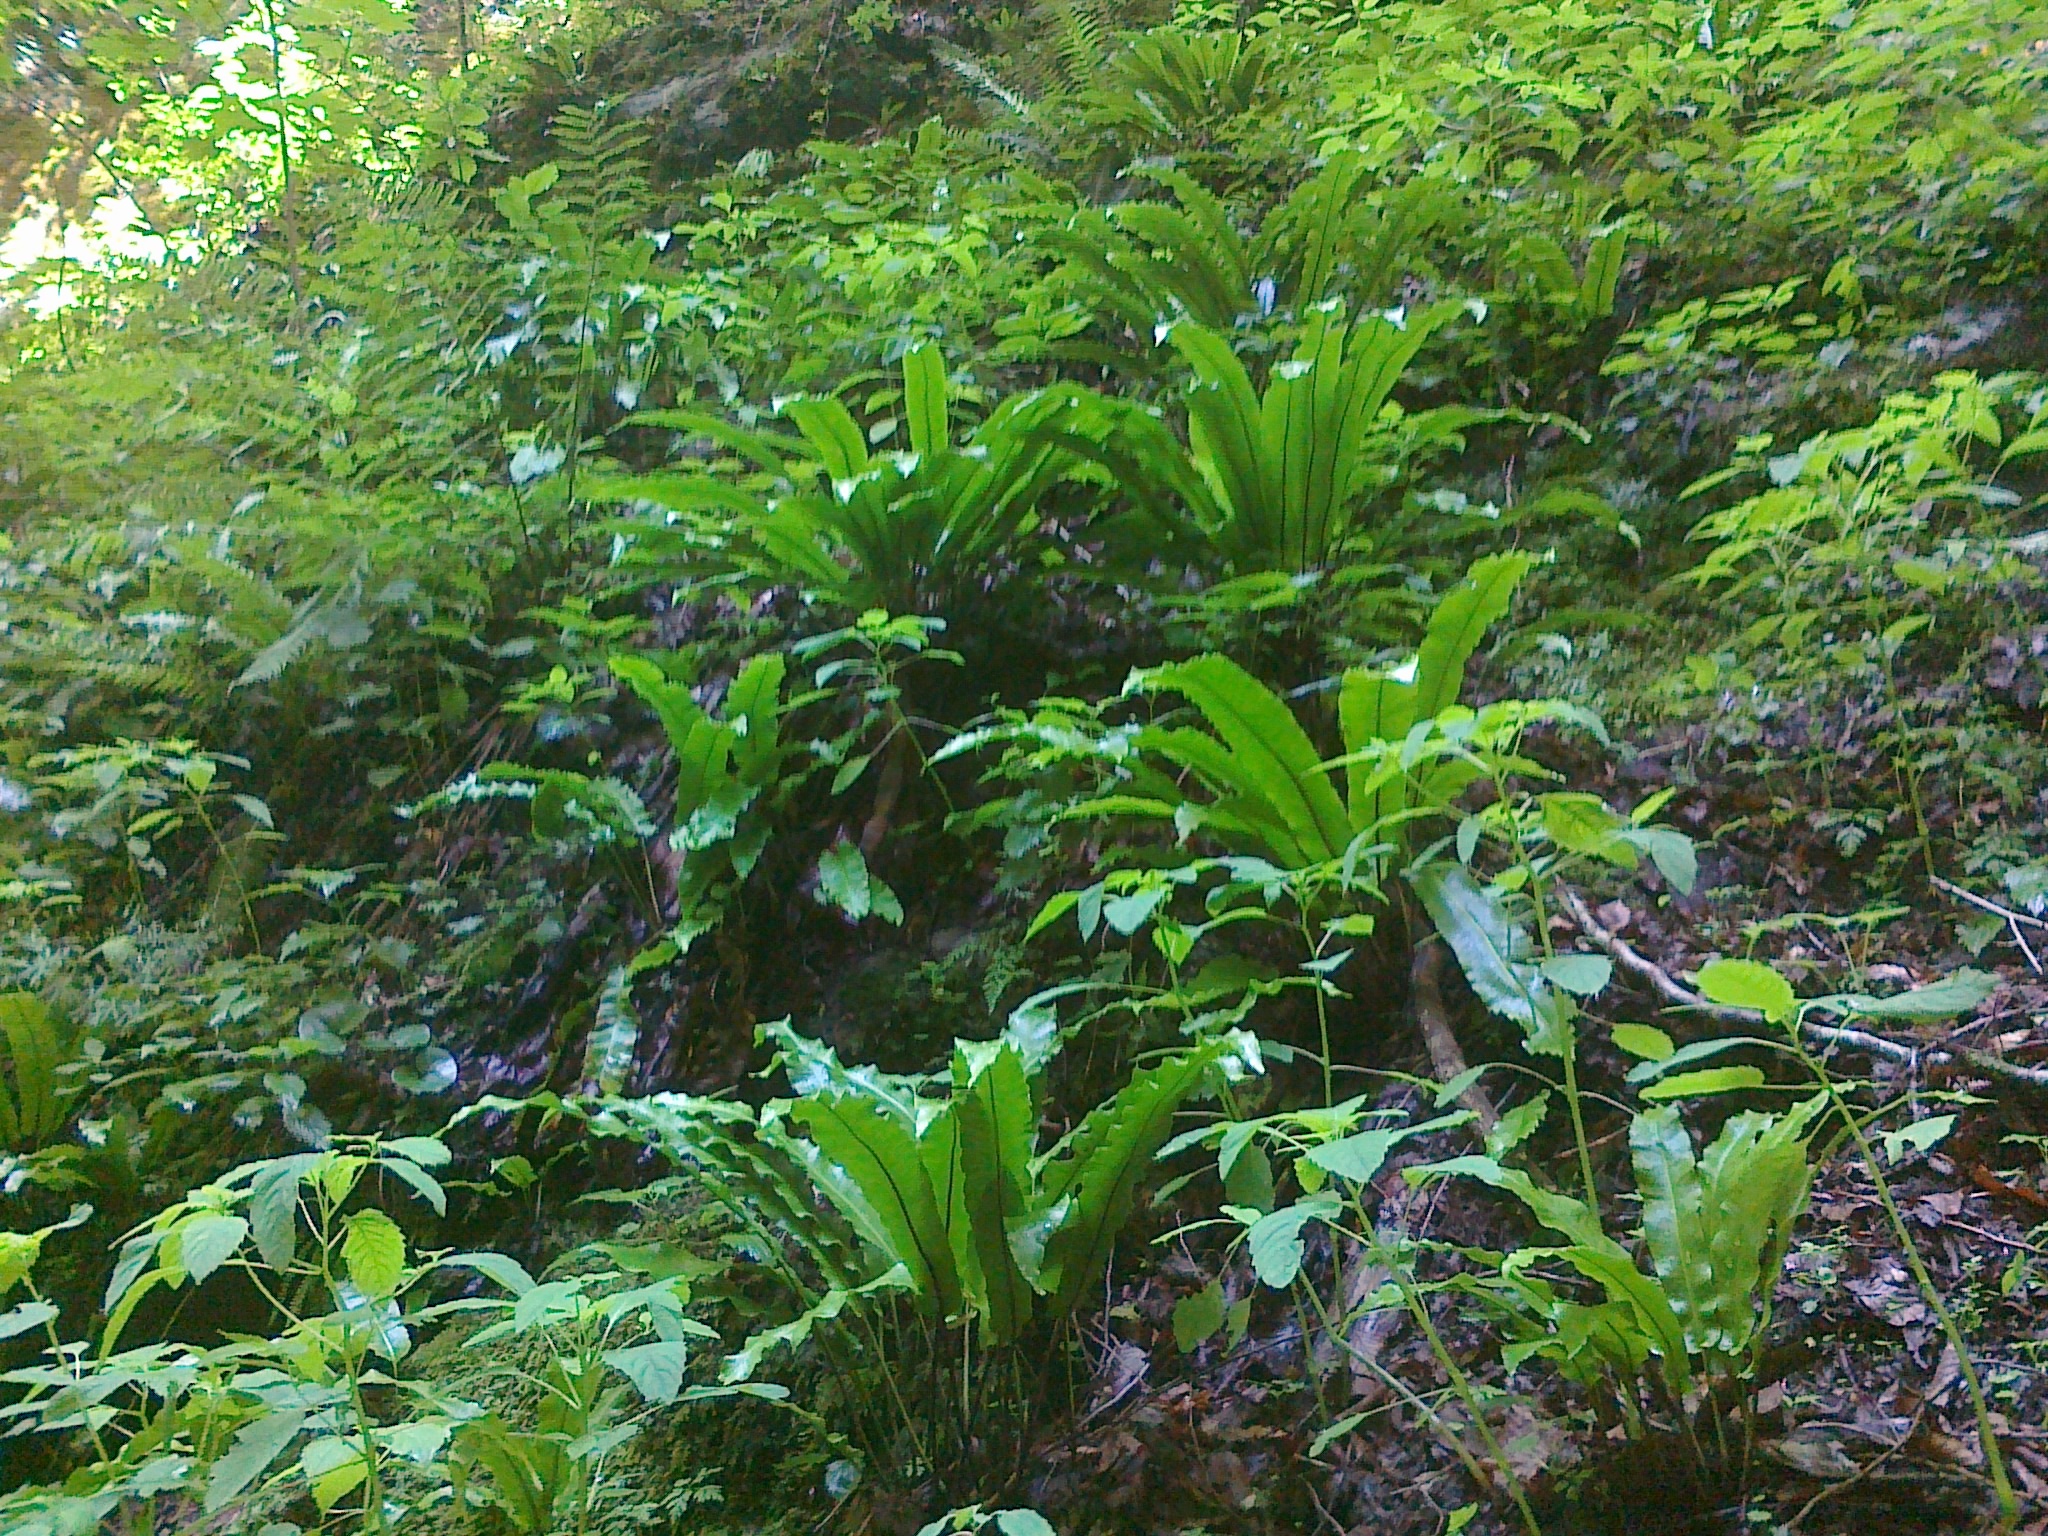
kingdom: Plantae
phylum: Tracheophyta
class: Polypodiopsida
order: Polypodiales
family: Aspleniaceae
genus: Asplenium
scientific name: Asplenium scolopendrium
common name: Hart's-tongue fern
